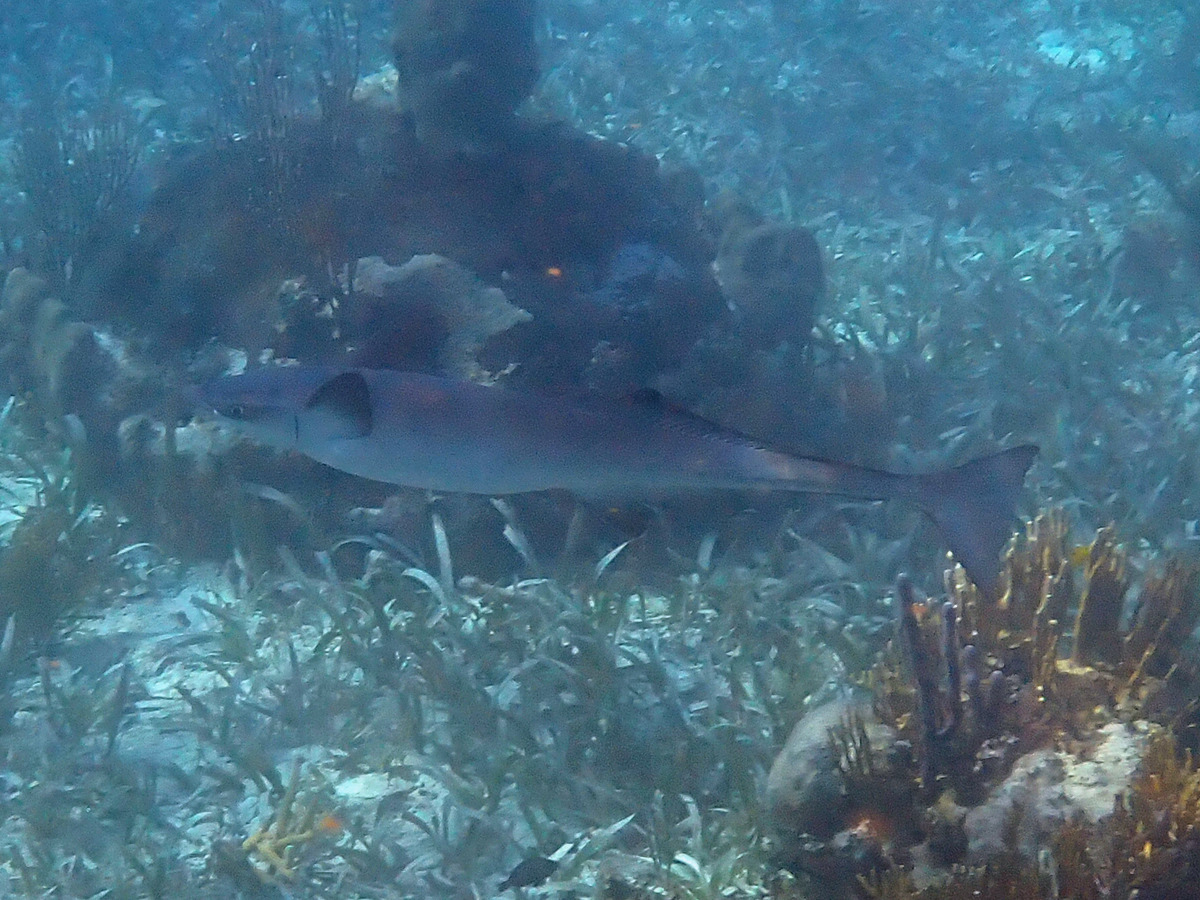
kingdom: Animalia
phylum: Chordata
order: Perciformes
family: Echeneidae
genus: Echeneis
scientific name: Echeneis naucrates
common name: Sharksucker
